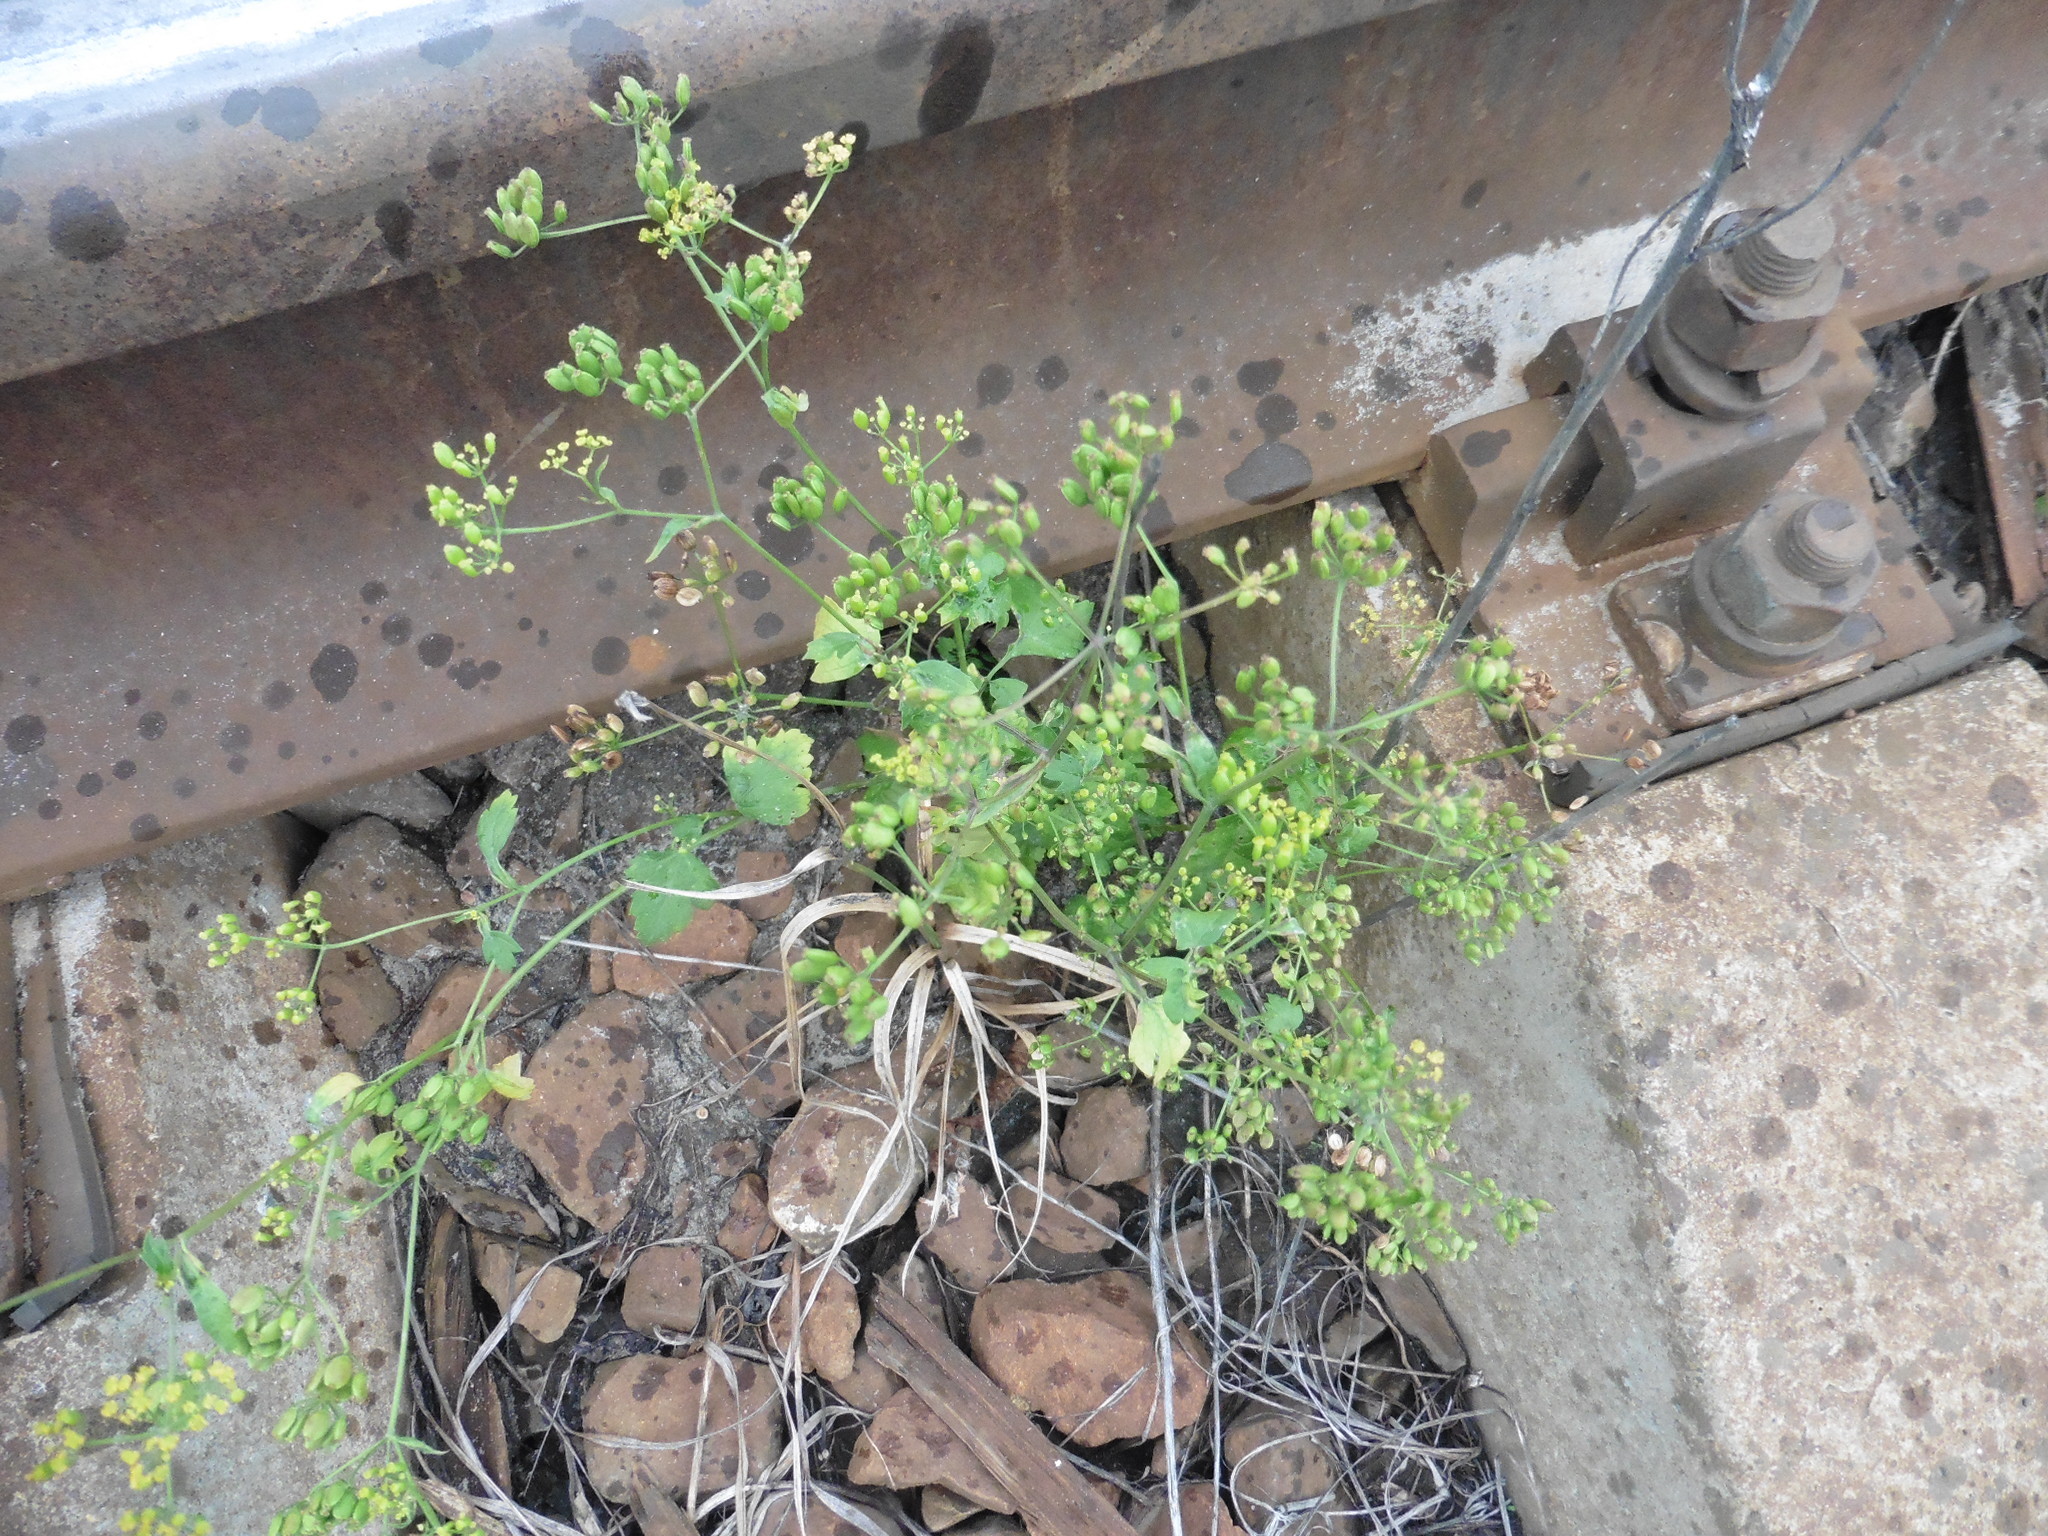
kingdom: Plantae
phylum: Tracheophyta
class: Magnoliopsida
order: Apiales
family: Apiaceae
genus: Pastinaca
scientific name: Pastinaca sativa
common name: Wild parsnip
